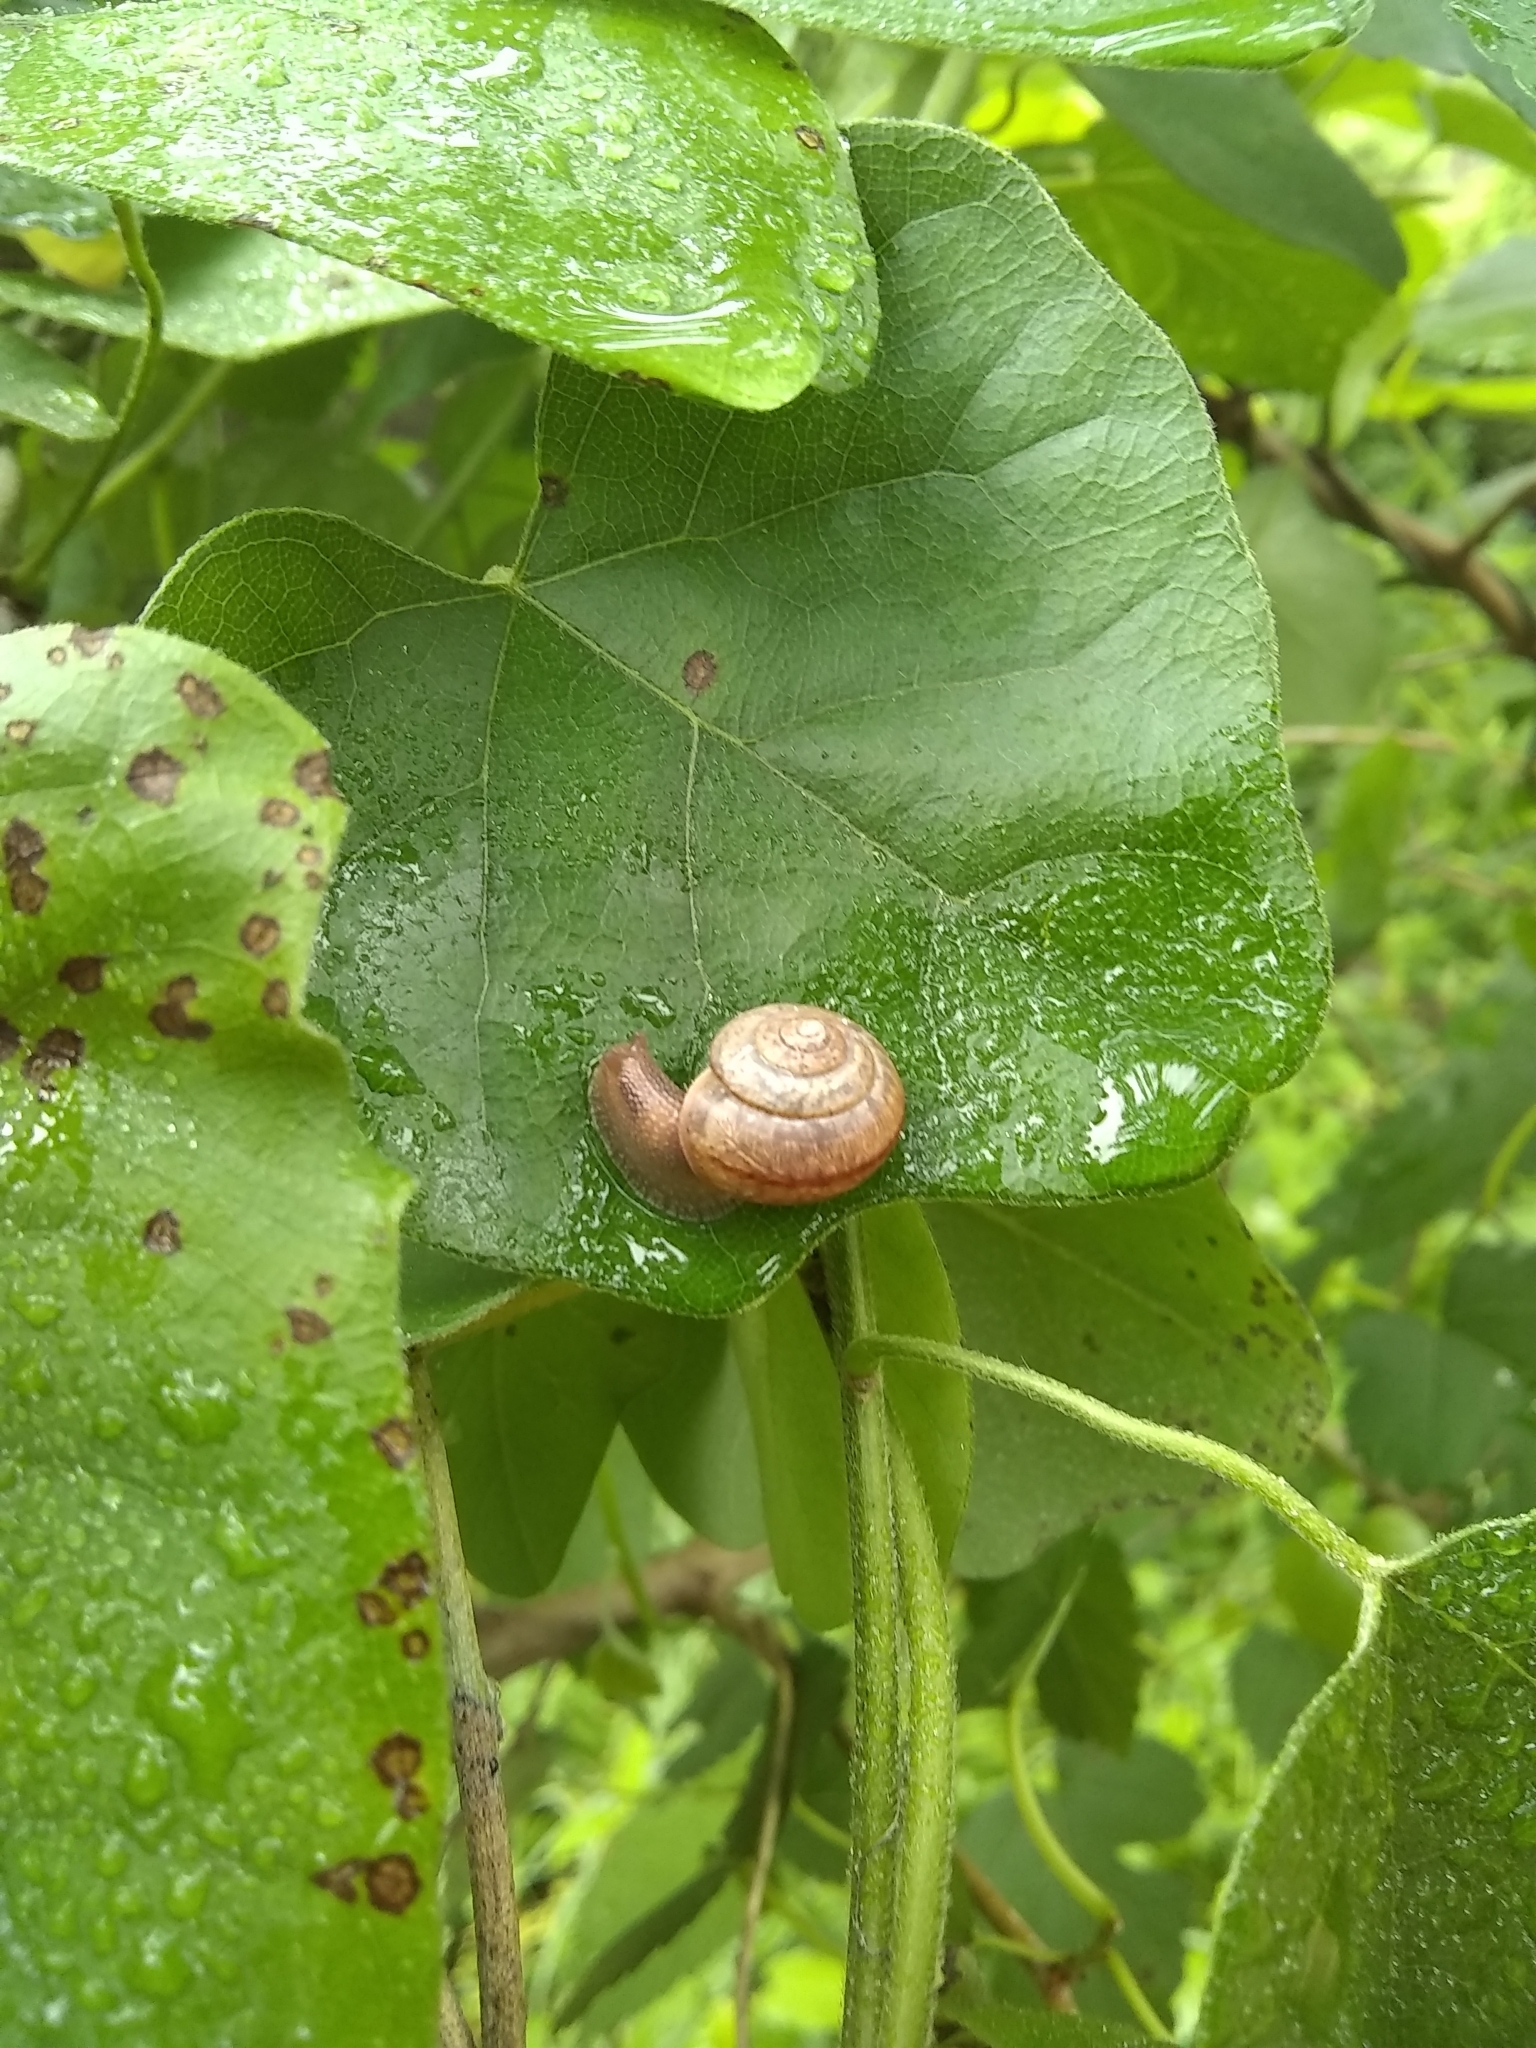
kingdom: Animalia
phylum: Mollusca
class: Gastropoda
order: Stylommatophora
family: Camaenidae
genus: Bradybaena
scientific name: Bradybaena similaris
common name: Asian trampsnail
